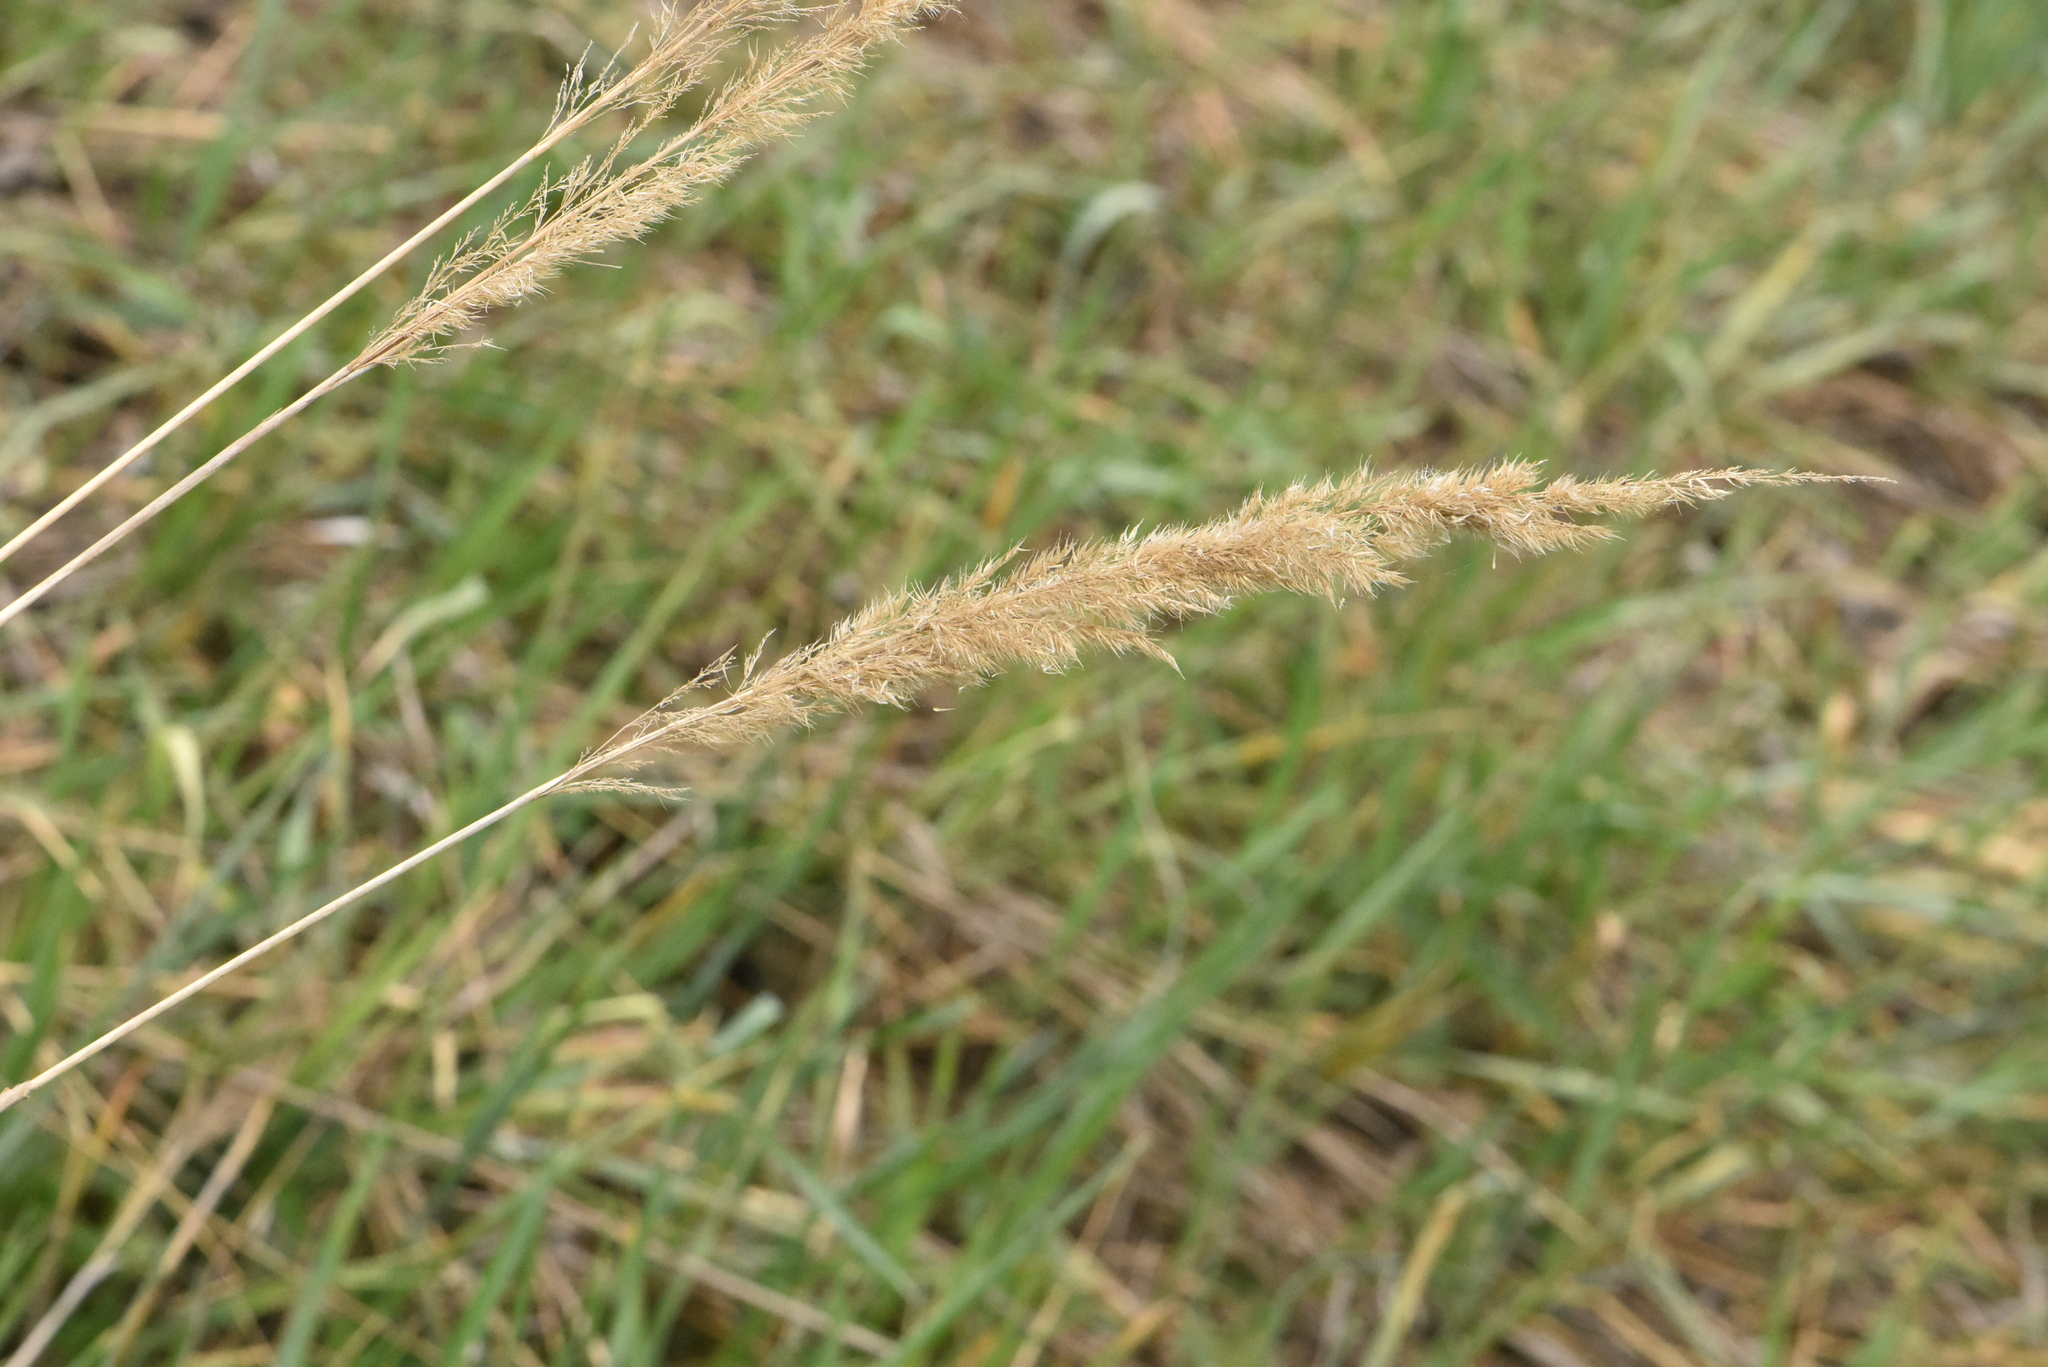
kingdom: Plantae
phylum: Tracheophyta
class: Liliopsida
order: Poales
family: Poaceae
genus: Calamagrostis
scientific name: Calamagrostis epigejos
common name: Wood small-reed
